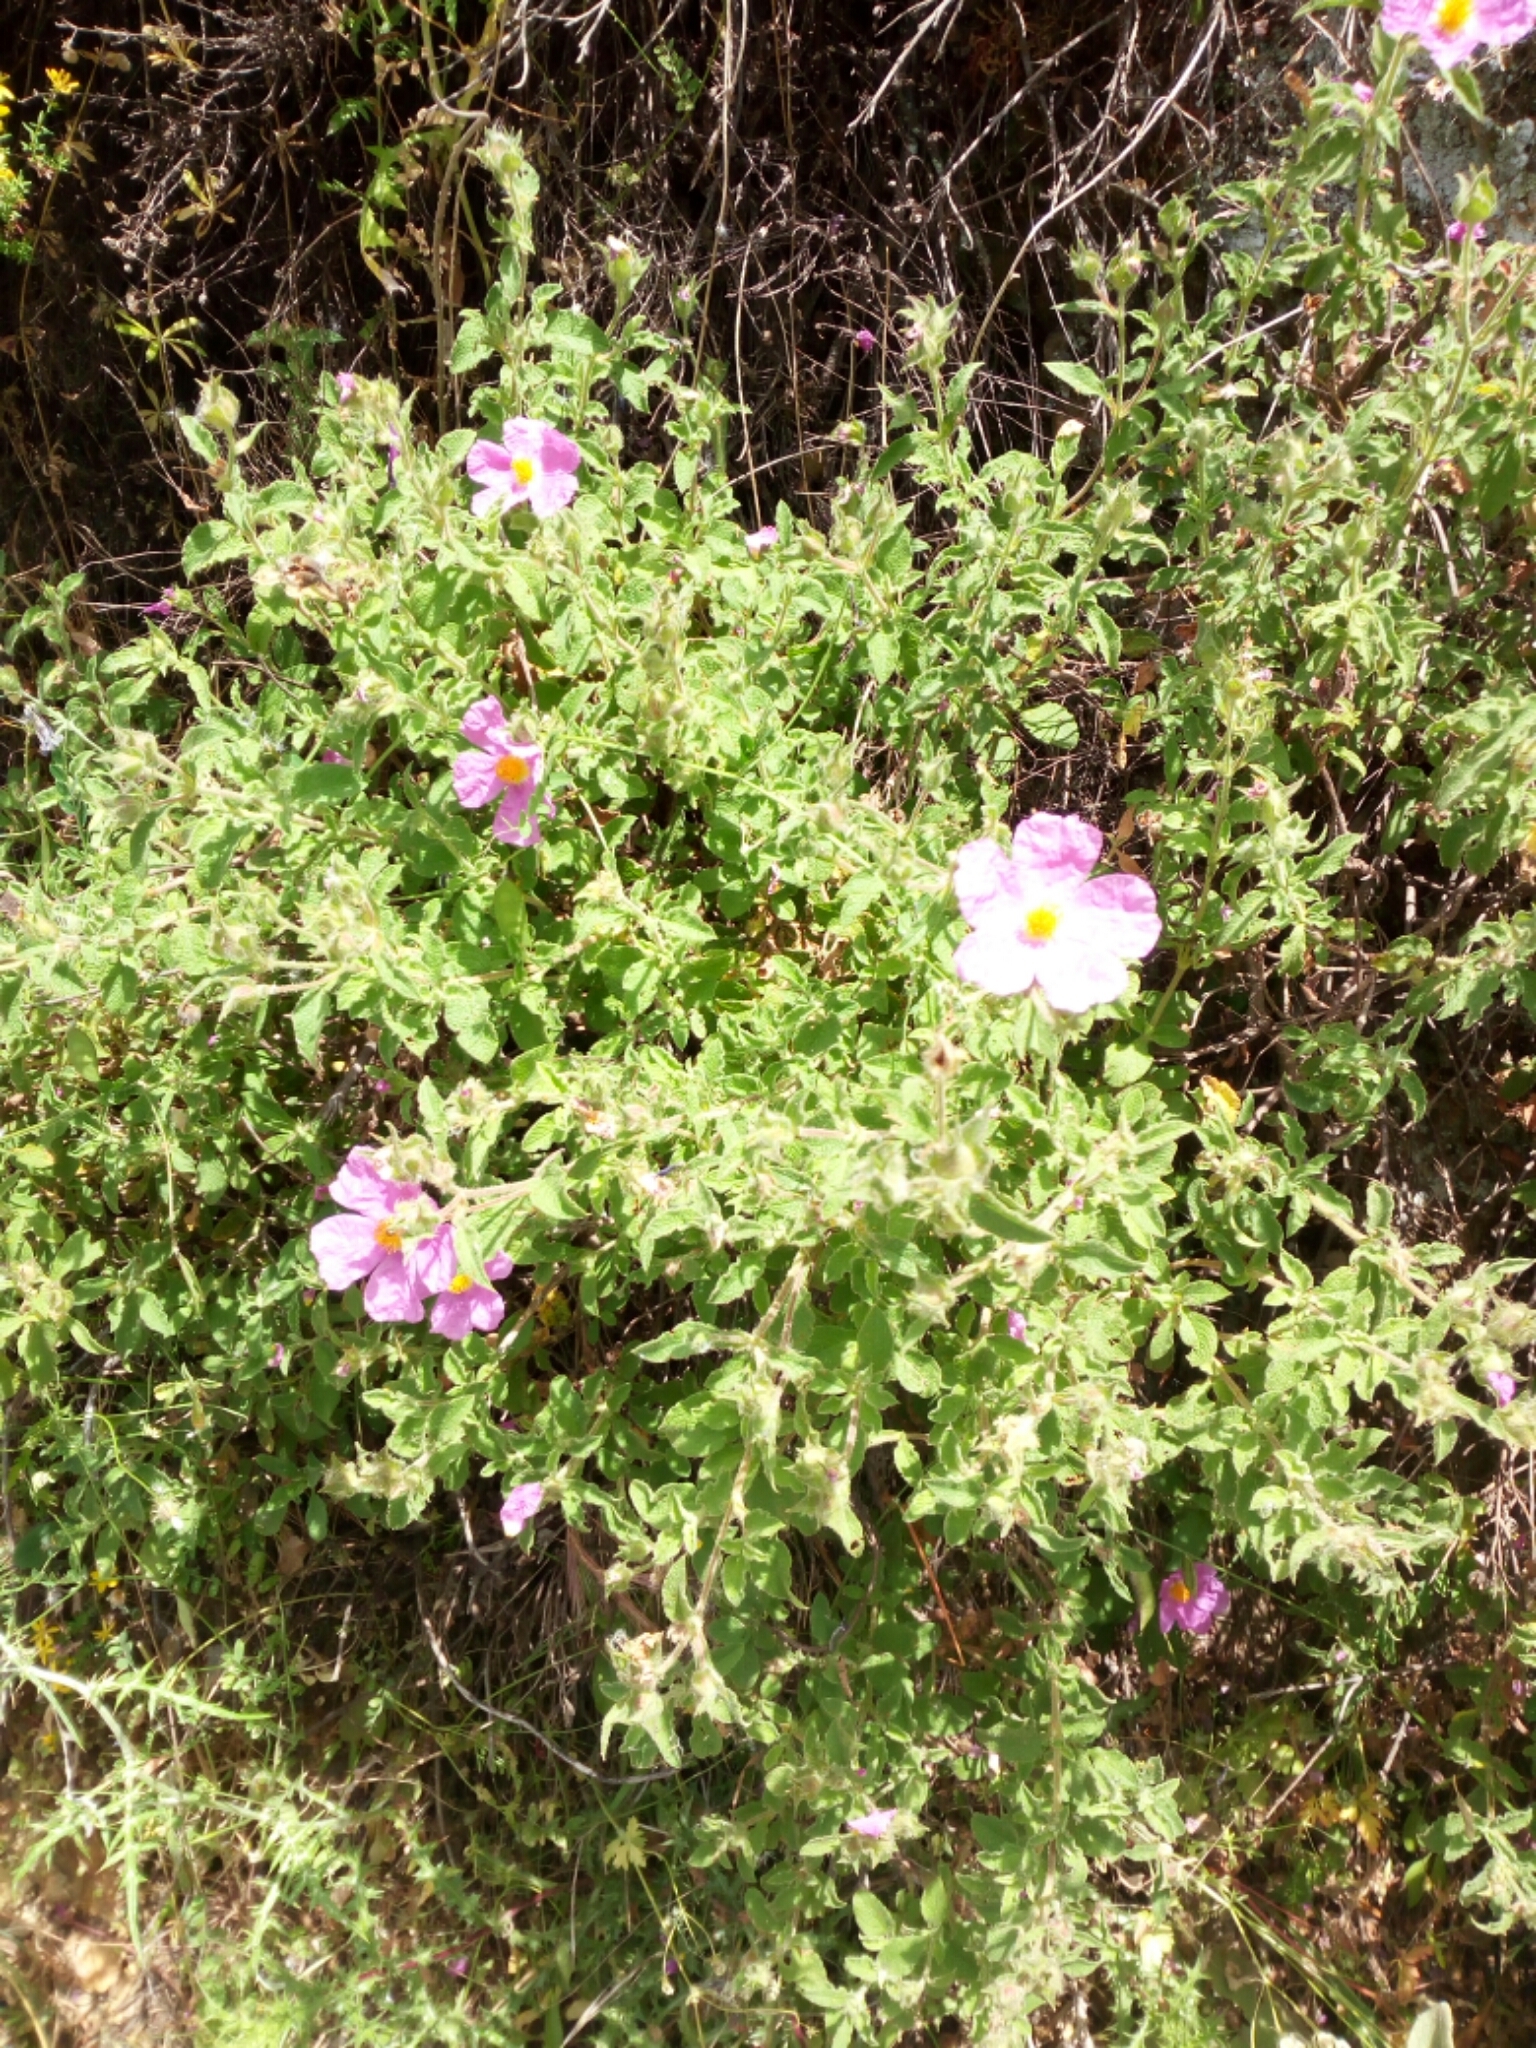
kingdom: Plantae
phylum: Tracheophyta
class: Magnoliopsida
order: Malvales
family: Cistaceae
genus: Cistus
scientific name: Cistus creticus
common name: Cretan rockrose
